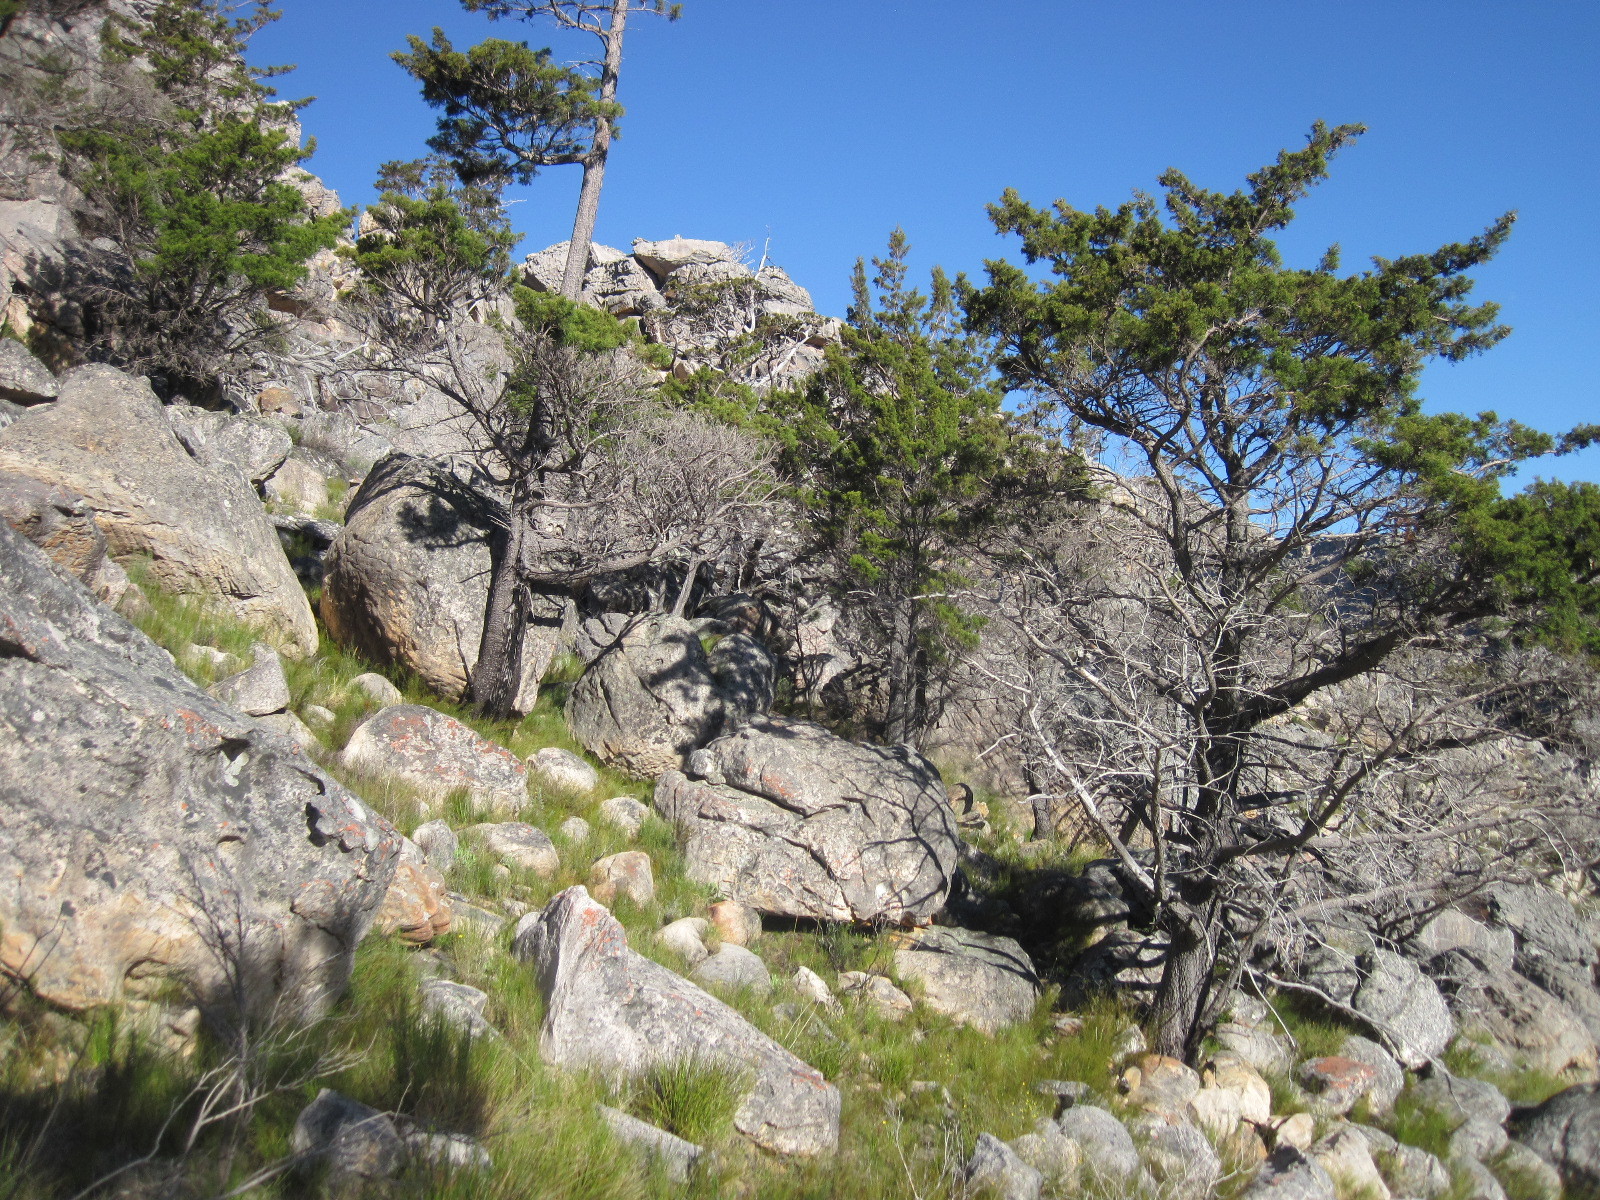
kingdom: Plantae
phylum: Tracheophyta
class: Pinopsida
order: Pinales
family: Cupressaceae
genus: Widdringtonia
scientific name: Widdringtonia nodiflora
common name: Cape cypress
